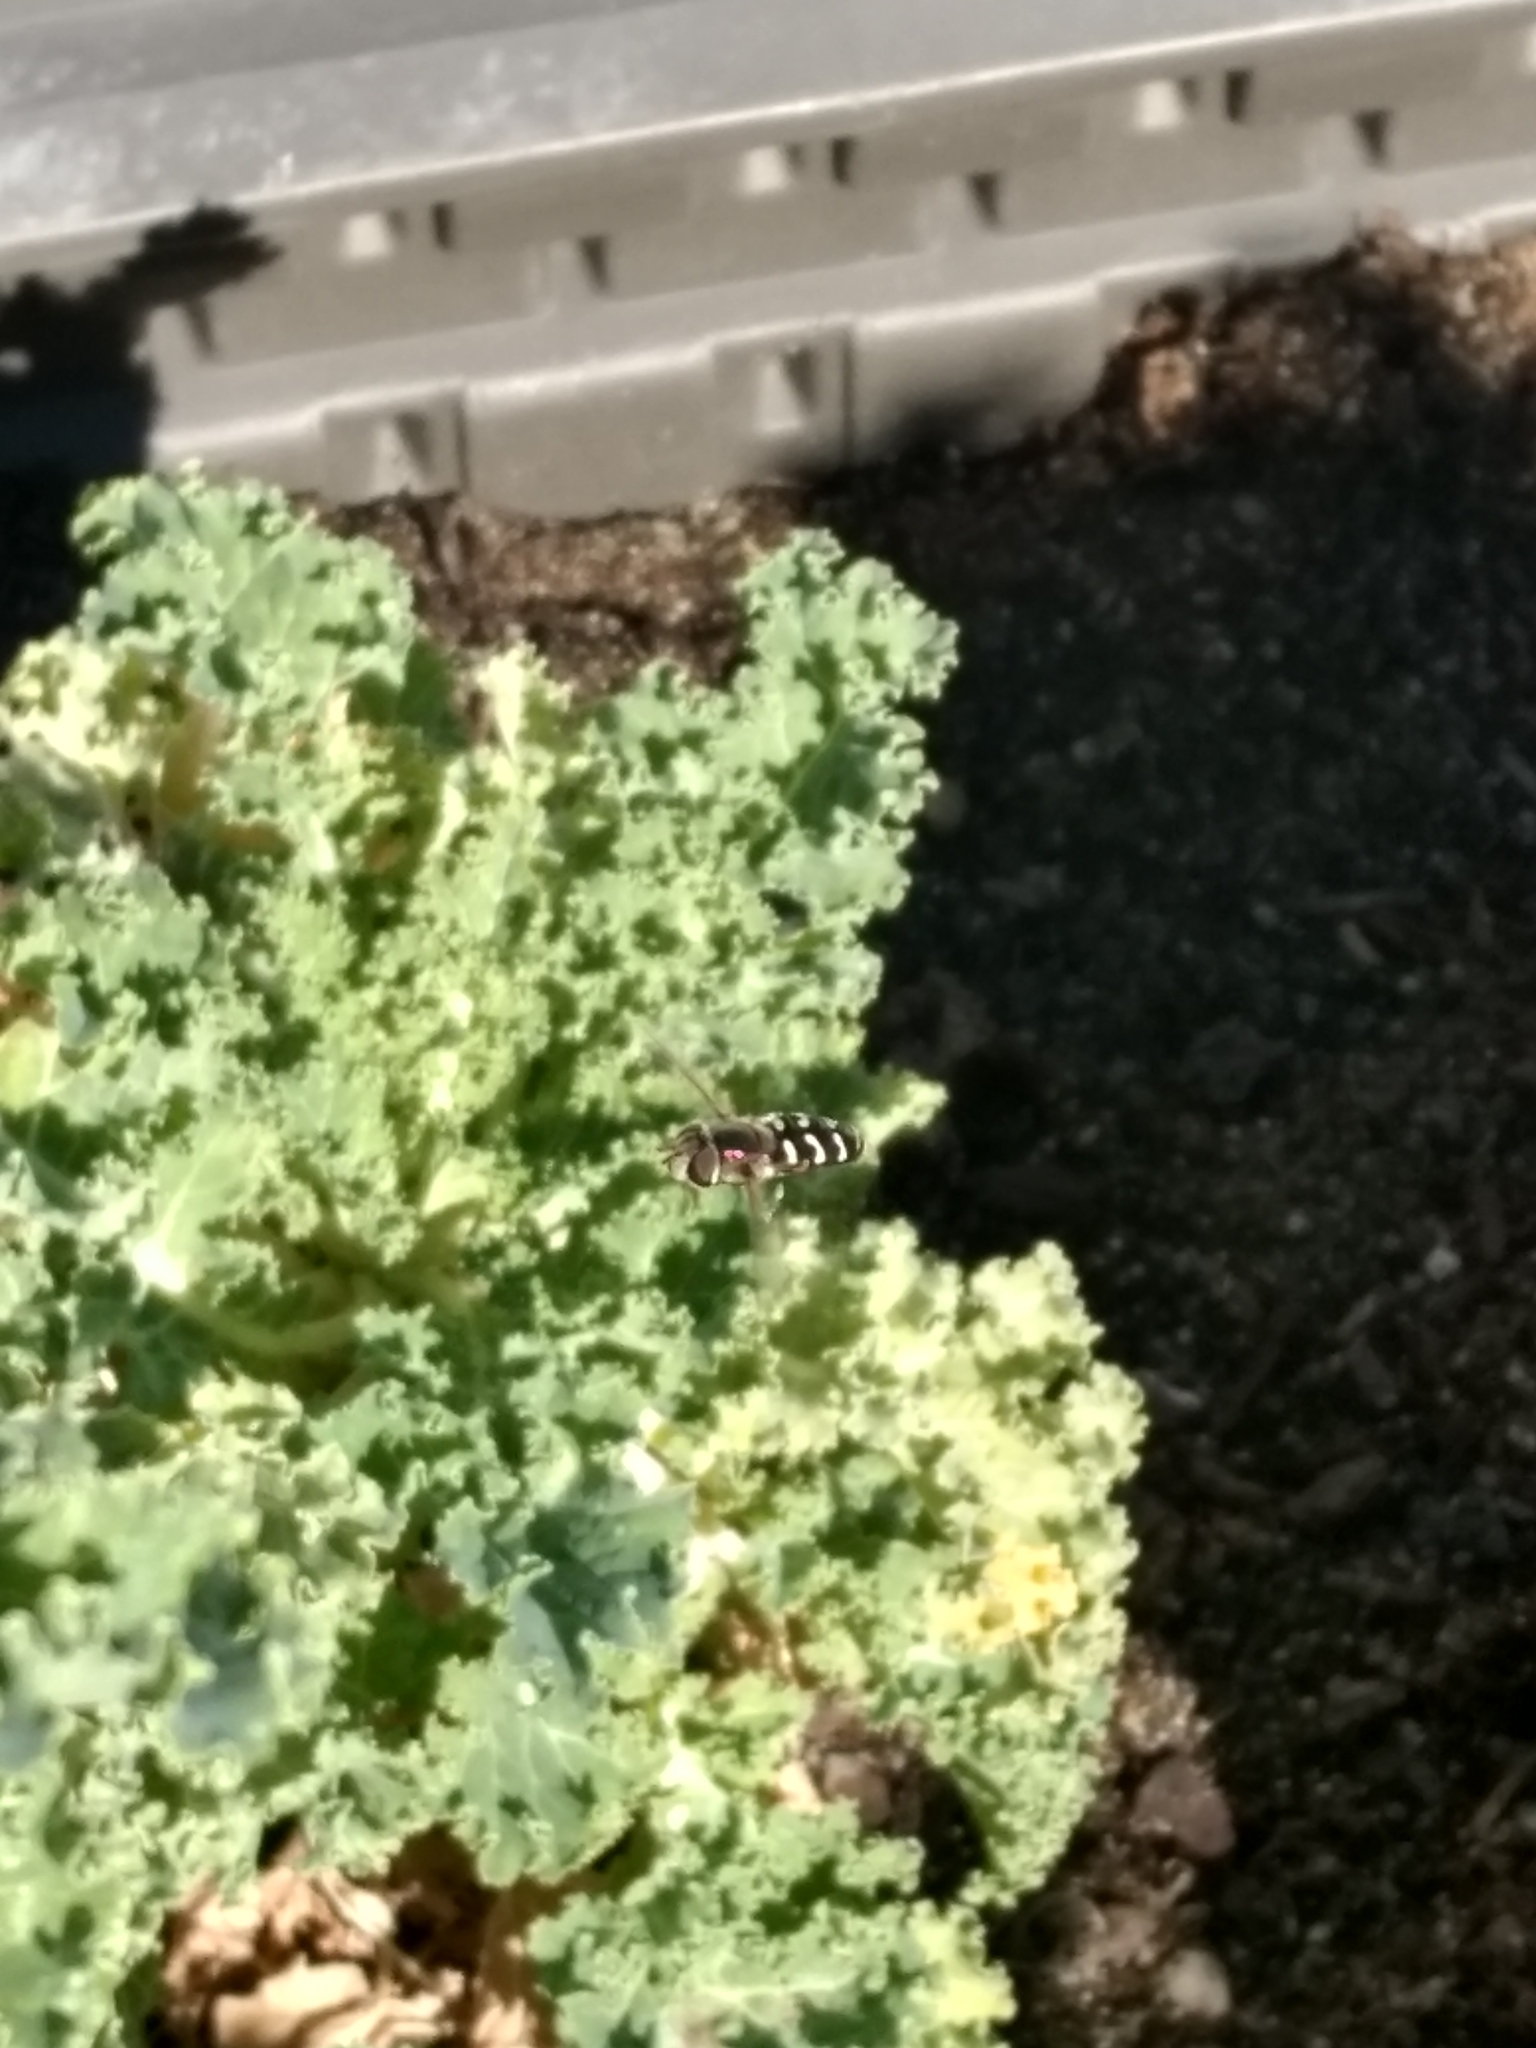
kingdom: Animalia
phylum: Arthropoda
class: Insecta
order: Diptera
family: Syrphidae
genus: Scaeva
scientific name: Scaeva affinis
